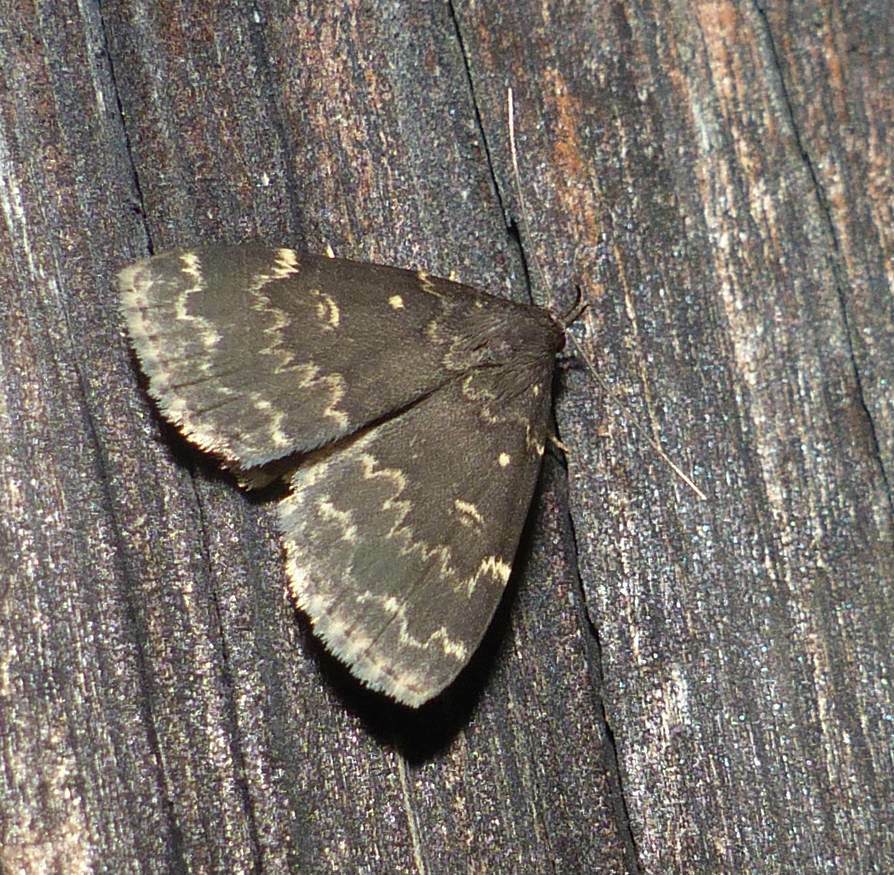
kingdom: Animalia
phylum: Arthropoda
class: Insecta
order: Lepidoptera
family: Erebidae
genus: Idia
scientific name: Idia lubricalis
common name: Twin-striped tabby
